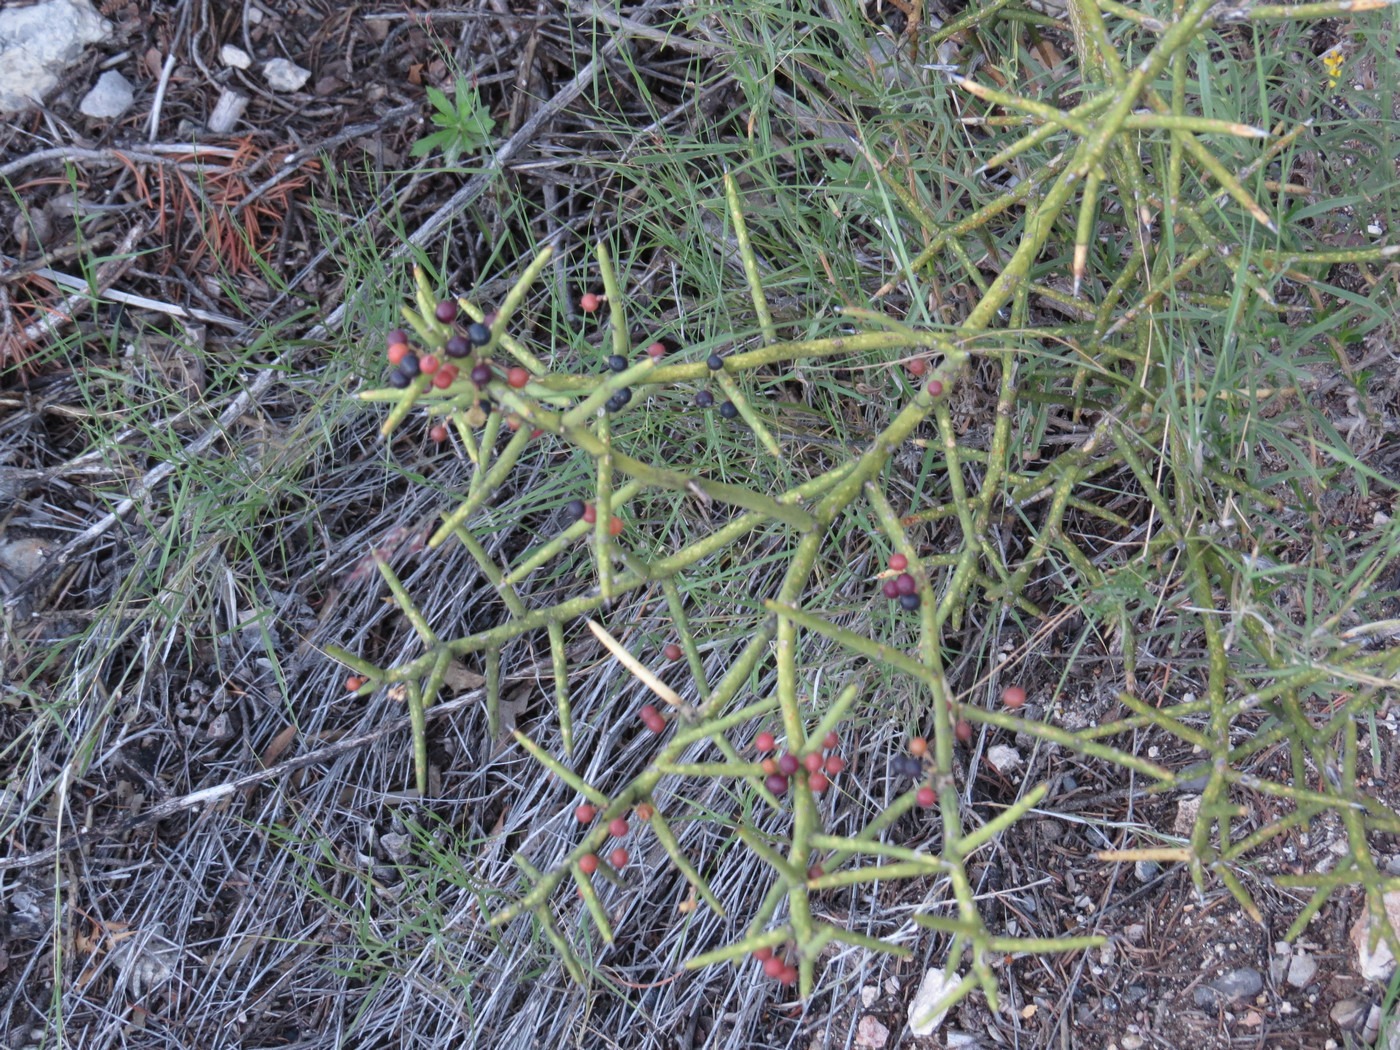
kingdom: Plantae
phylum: Tracheophyta
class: Magnoliopsida
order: Brassicales
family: Koeberliniaceae
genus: Koeberlinia
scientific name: Koeberlinia spinosa
